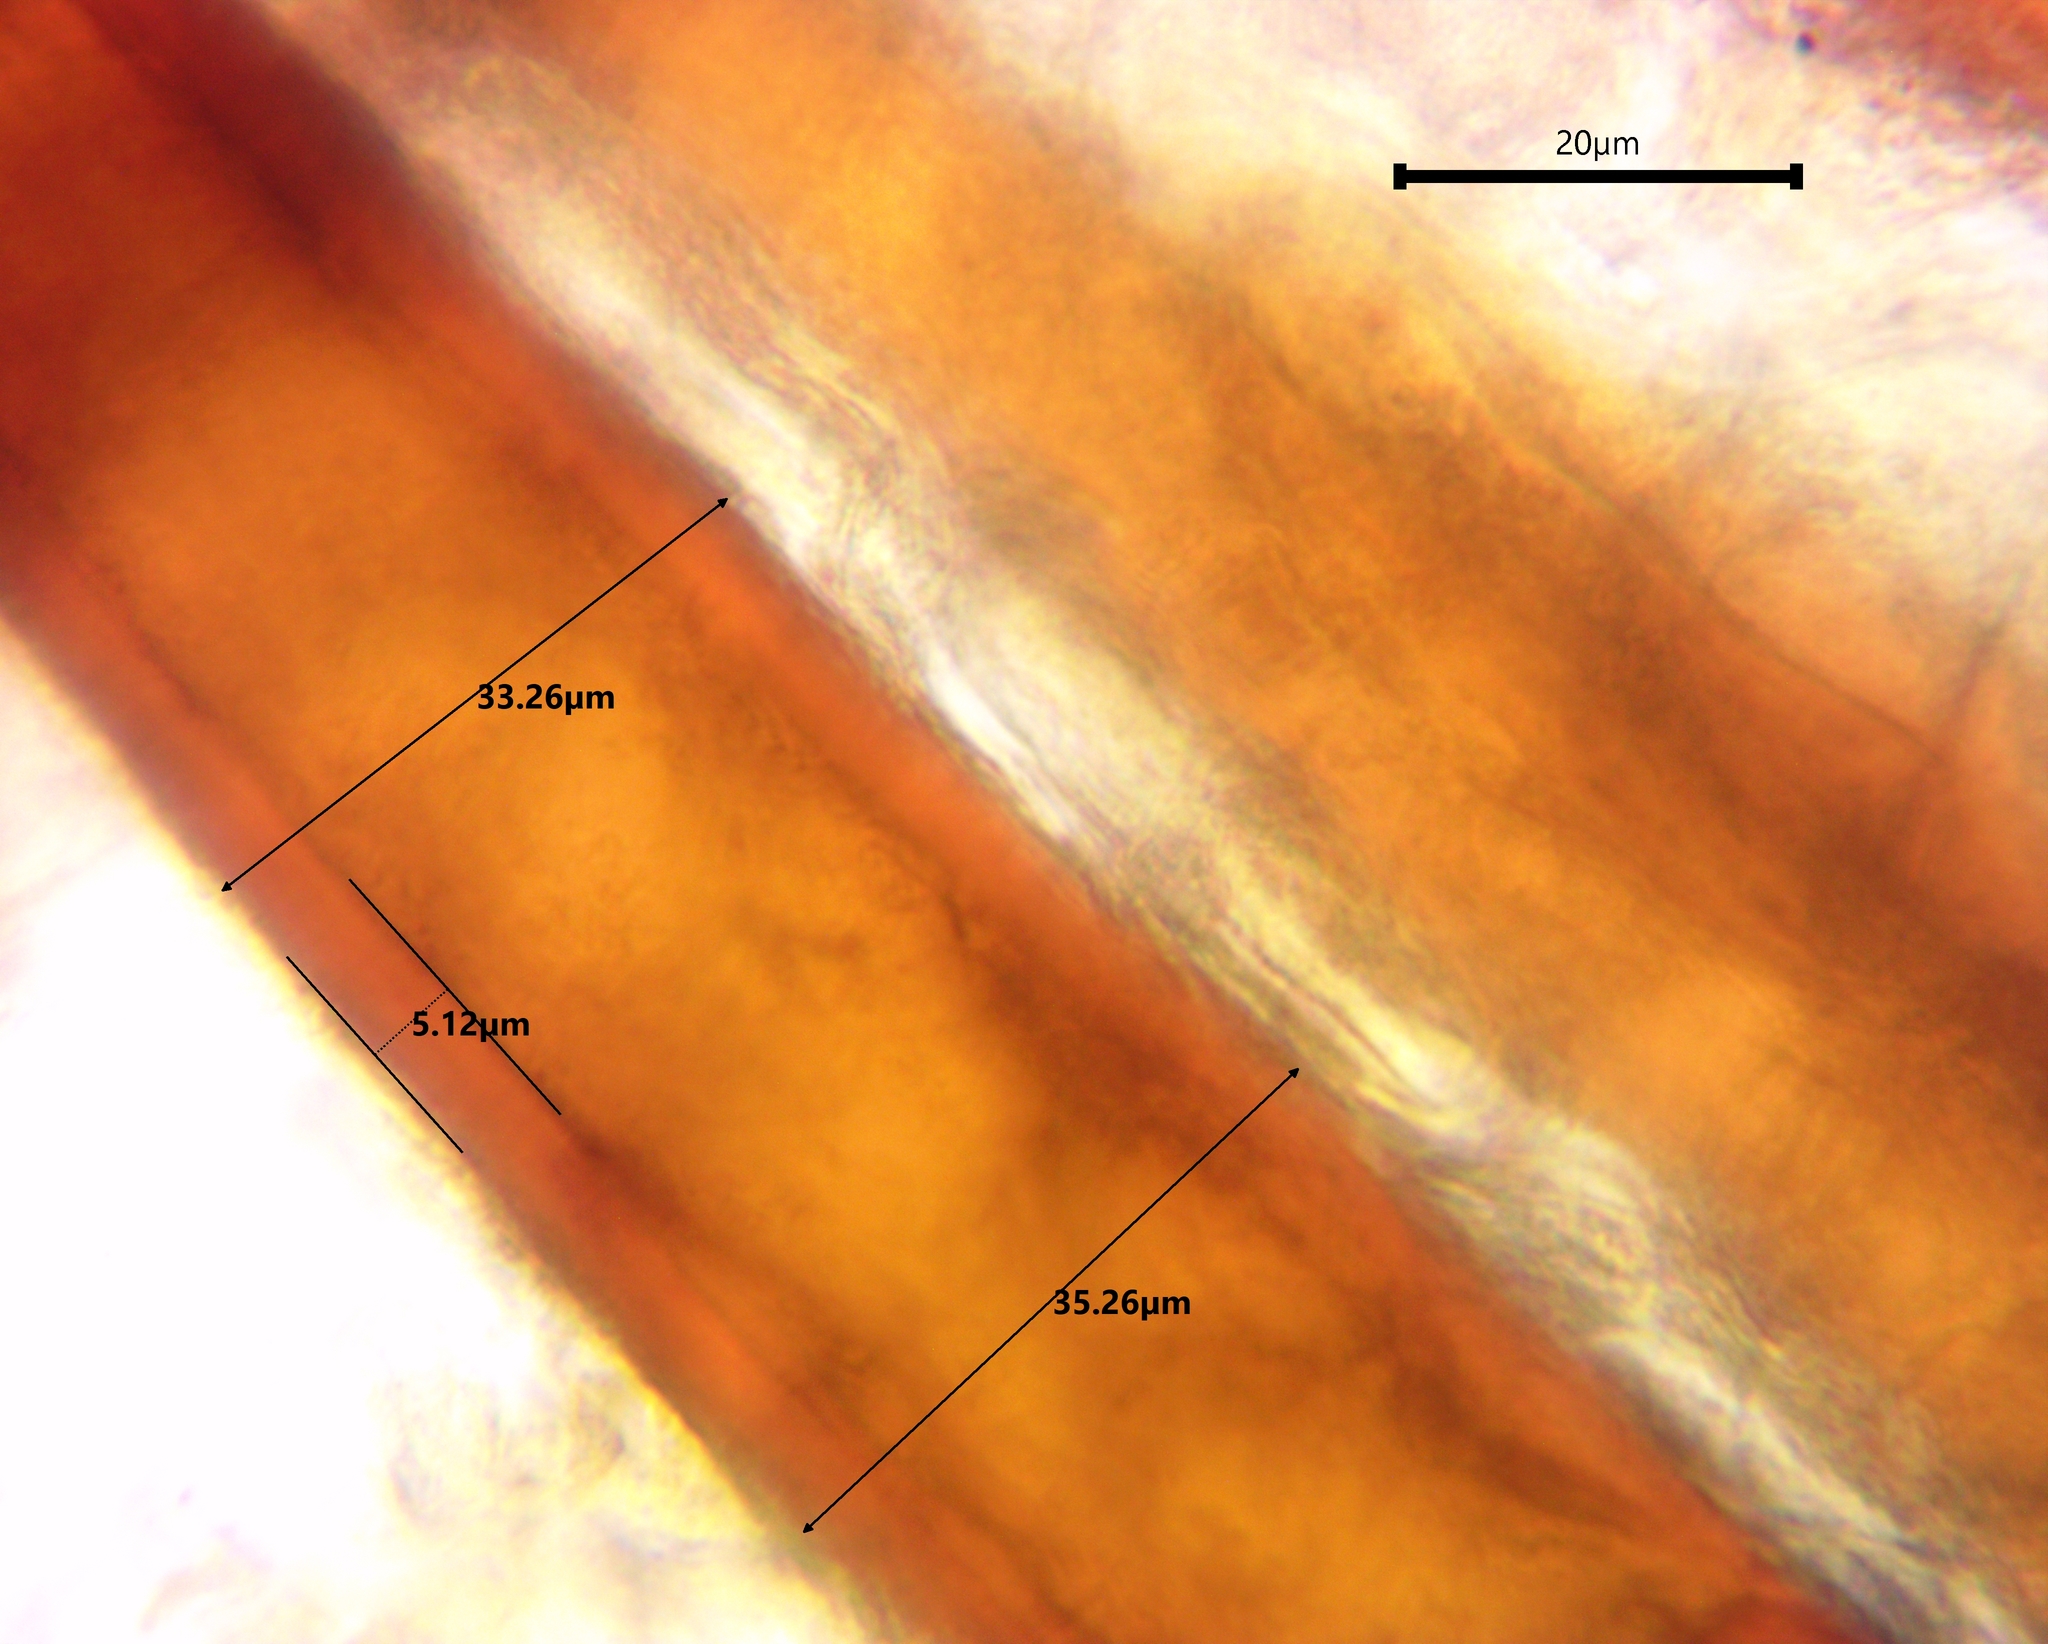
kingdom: Fungi
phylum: Ascomycota
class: Pezizomycetes
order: Pezizales
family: Pyronemataceae
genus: Scutellinia
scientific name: Scutellinia olivascens
